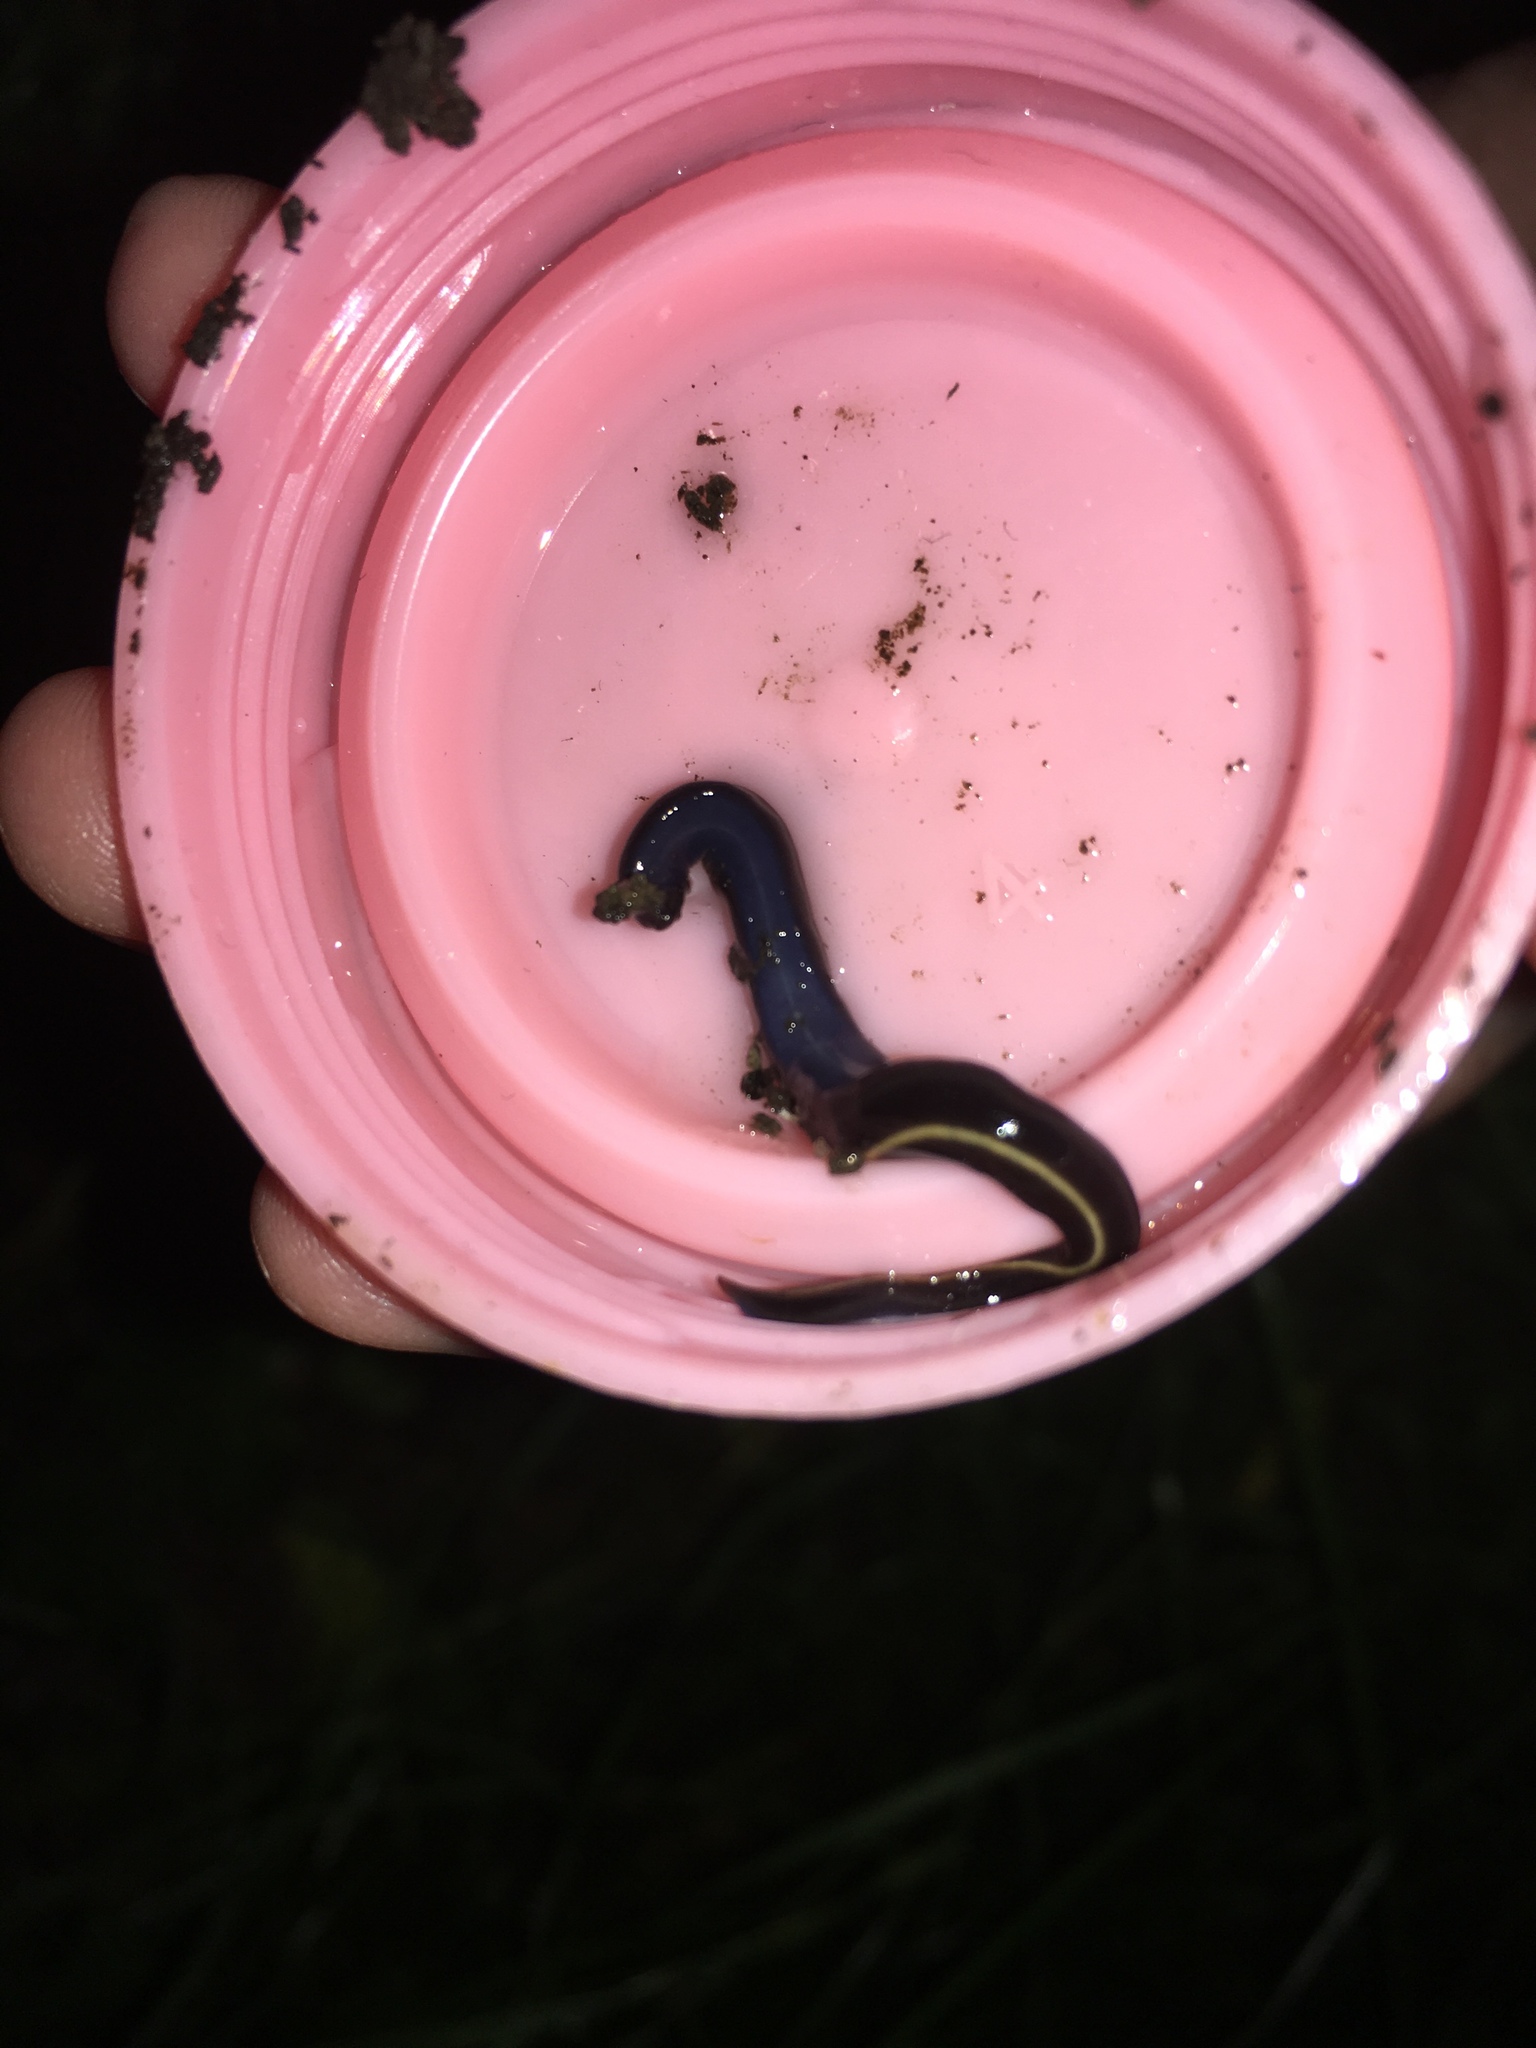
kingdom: Animalia
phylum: Platyhelminthes
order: Tricladida
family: Geoplanidae
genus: Caenoplana
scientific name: Caenoplana coerulea
